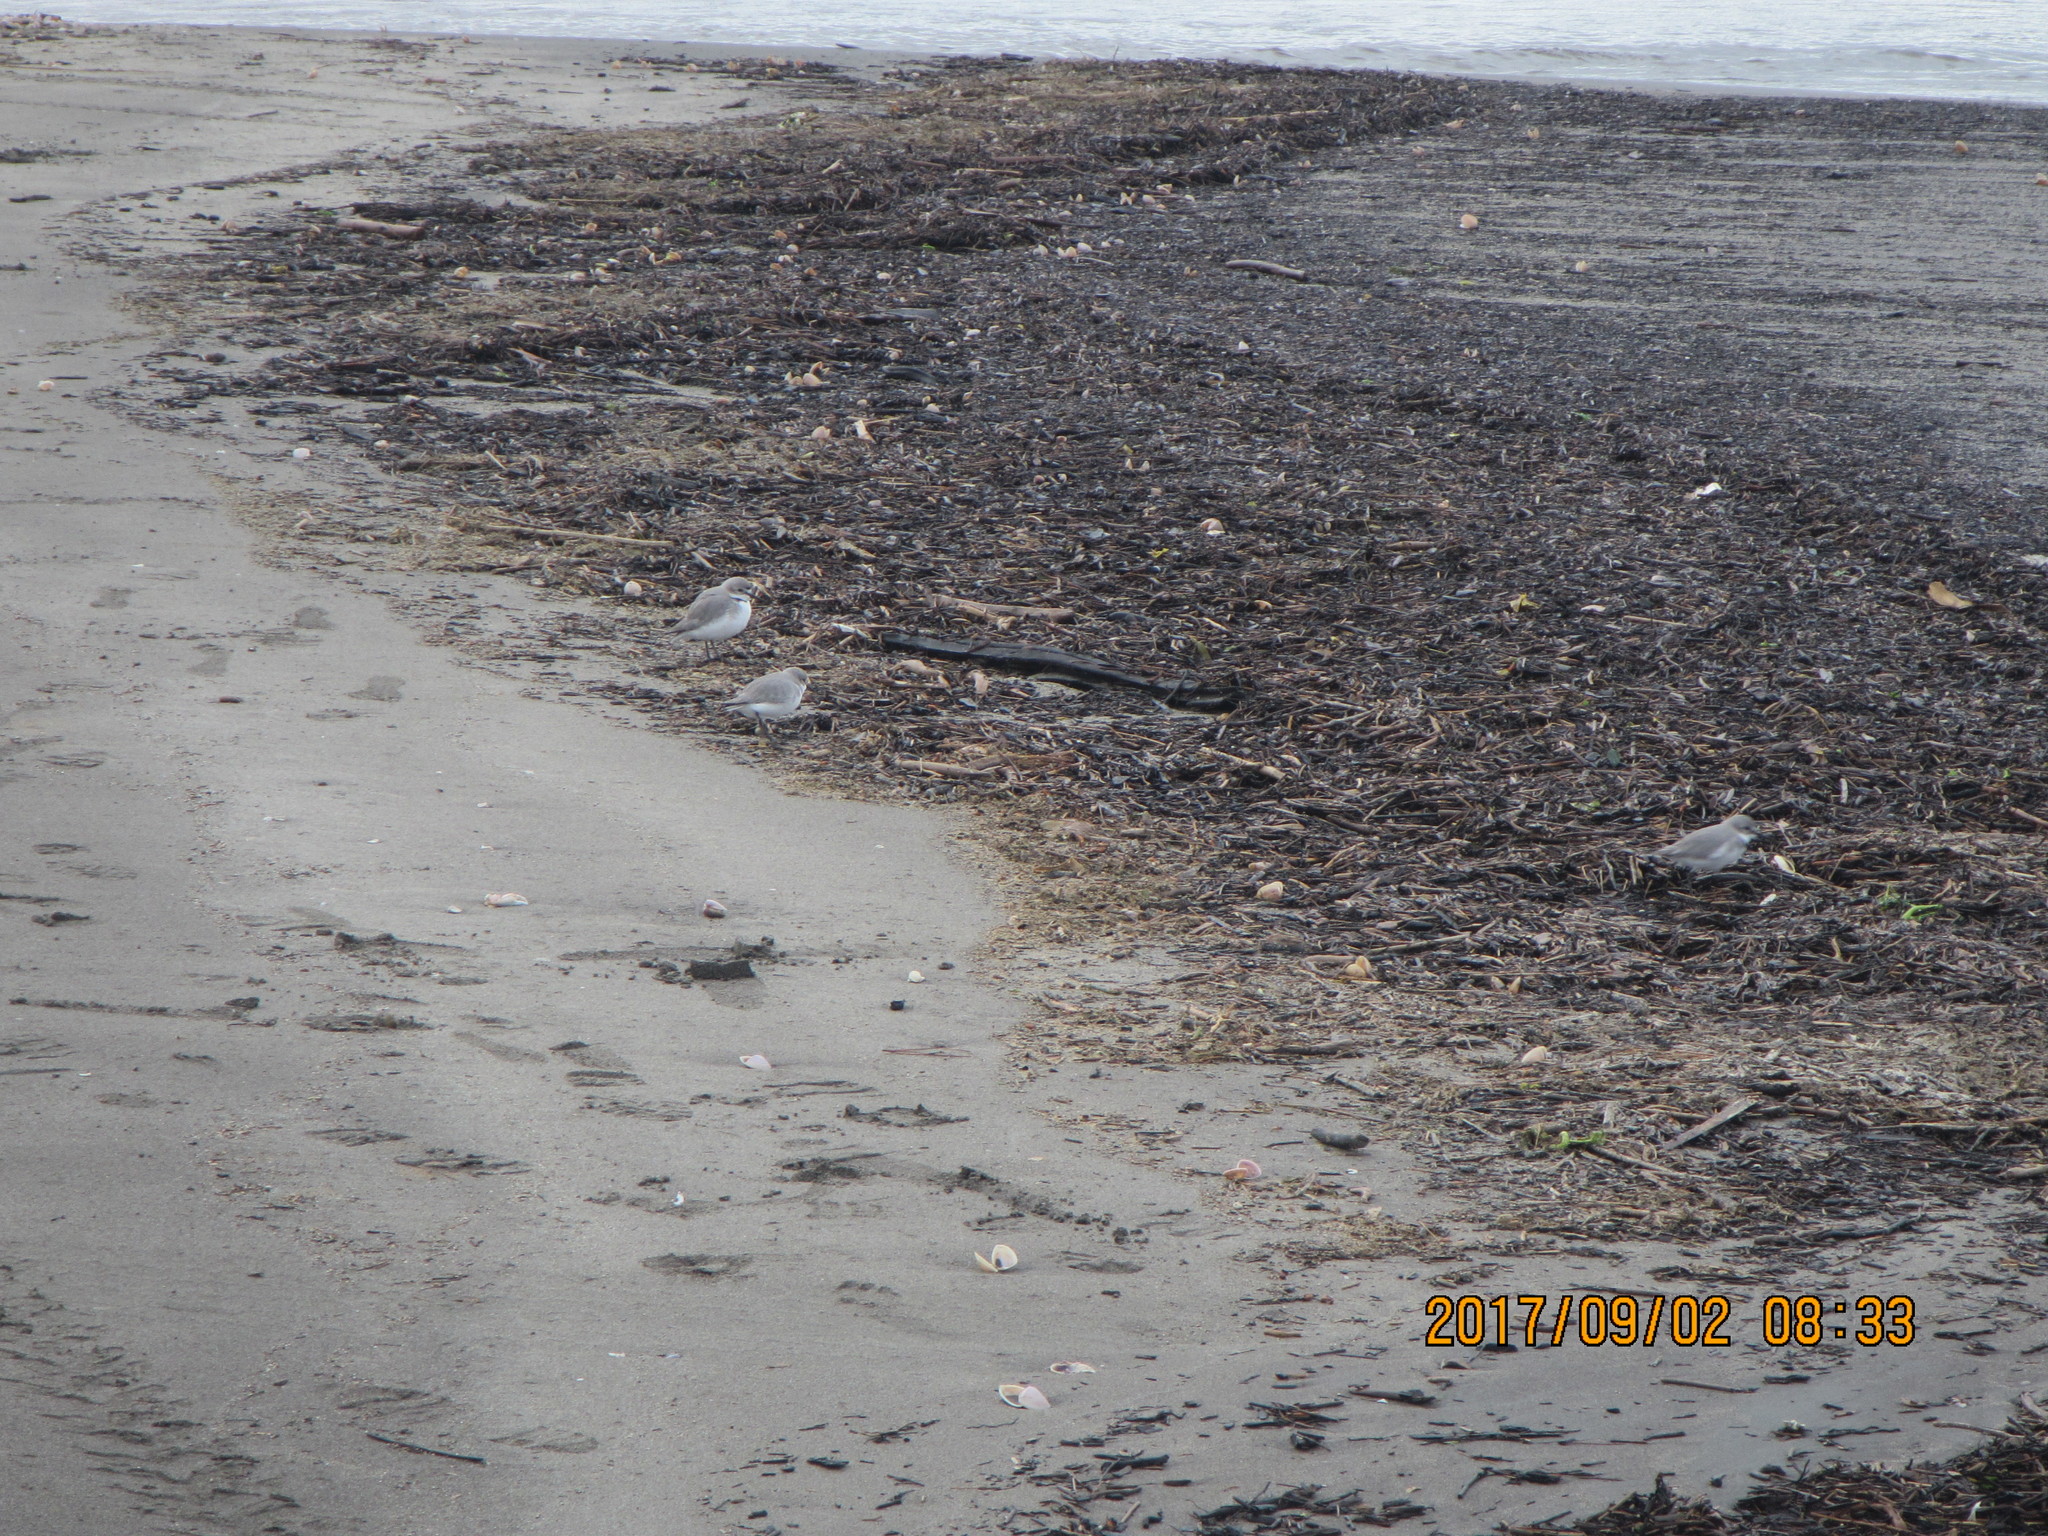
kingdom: Animalia
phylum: Chordata
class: Aves
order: Charadriiformes
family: Charadriidae
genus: Anarhynchus
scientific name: Anarhynchus frontalis
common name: Wrybill
